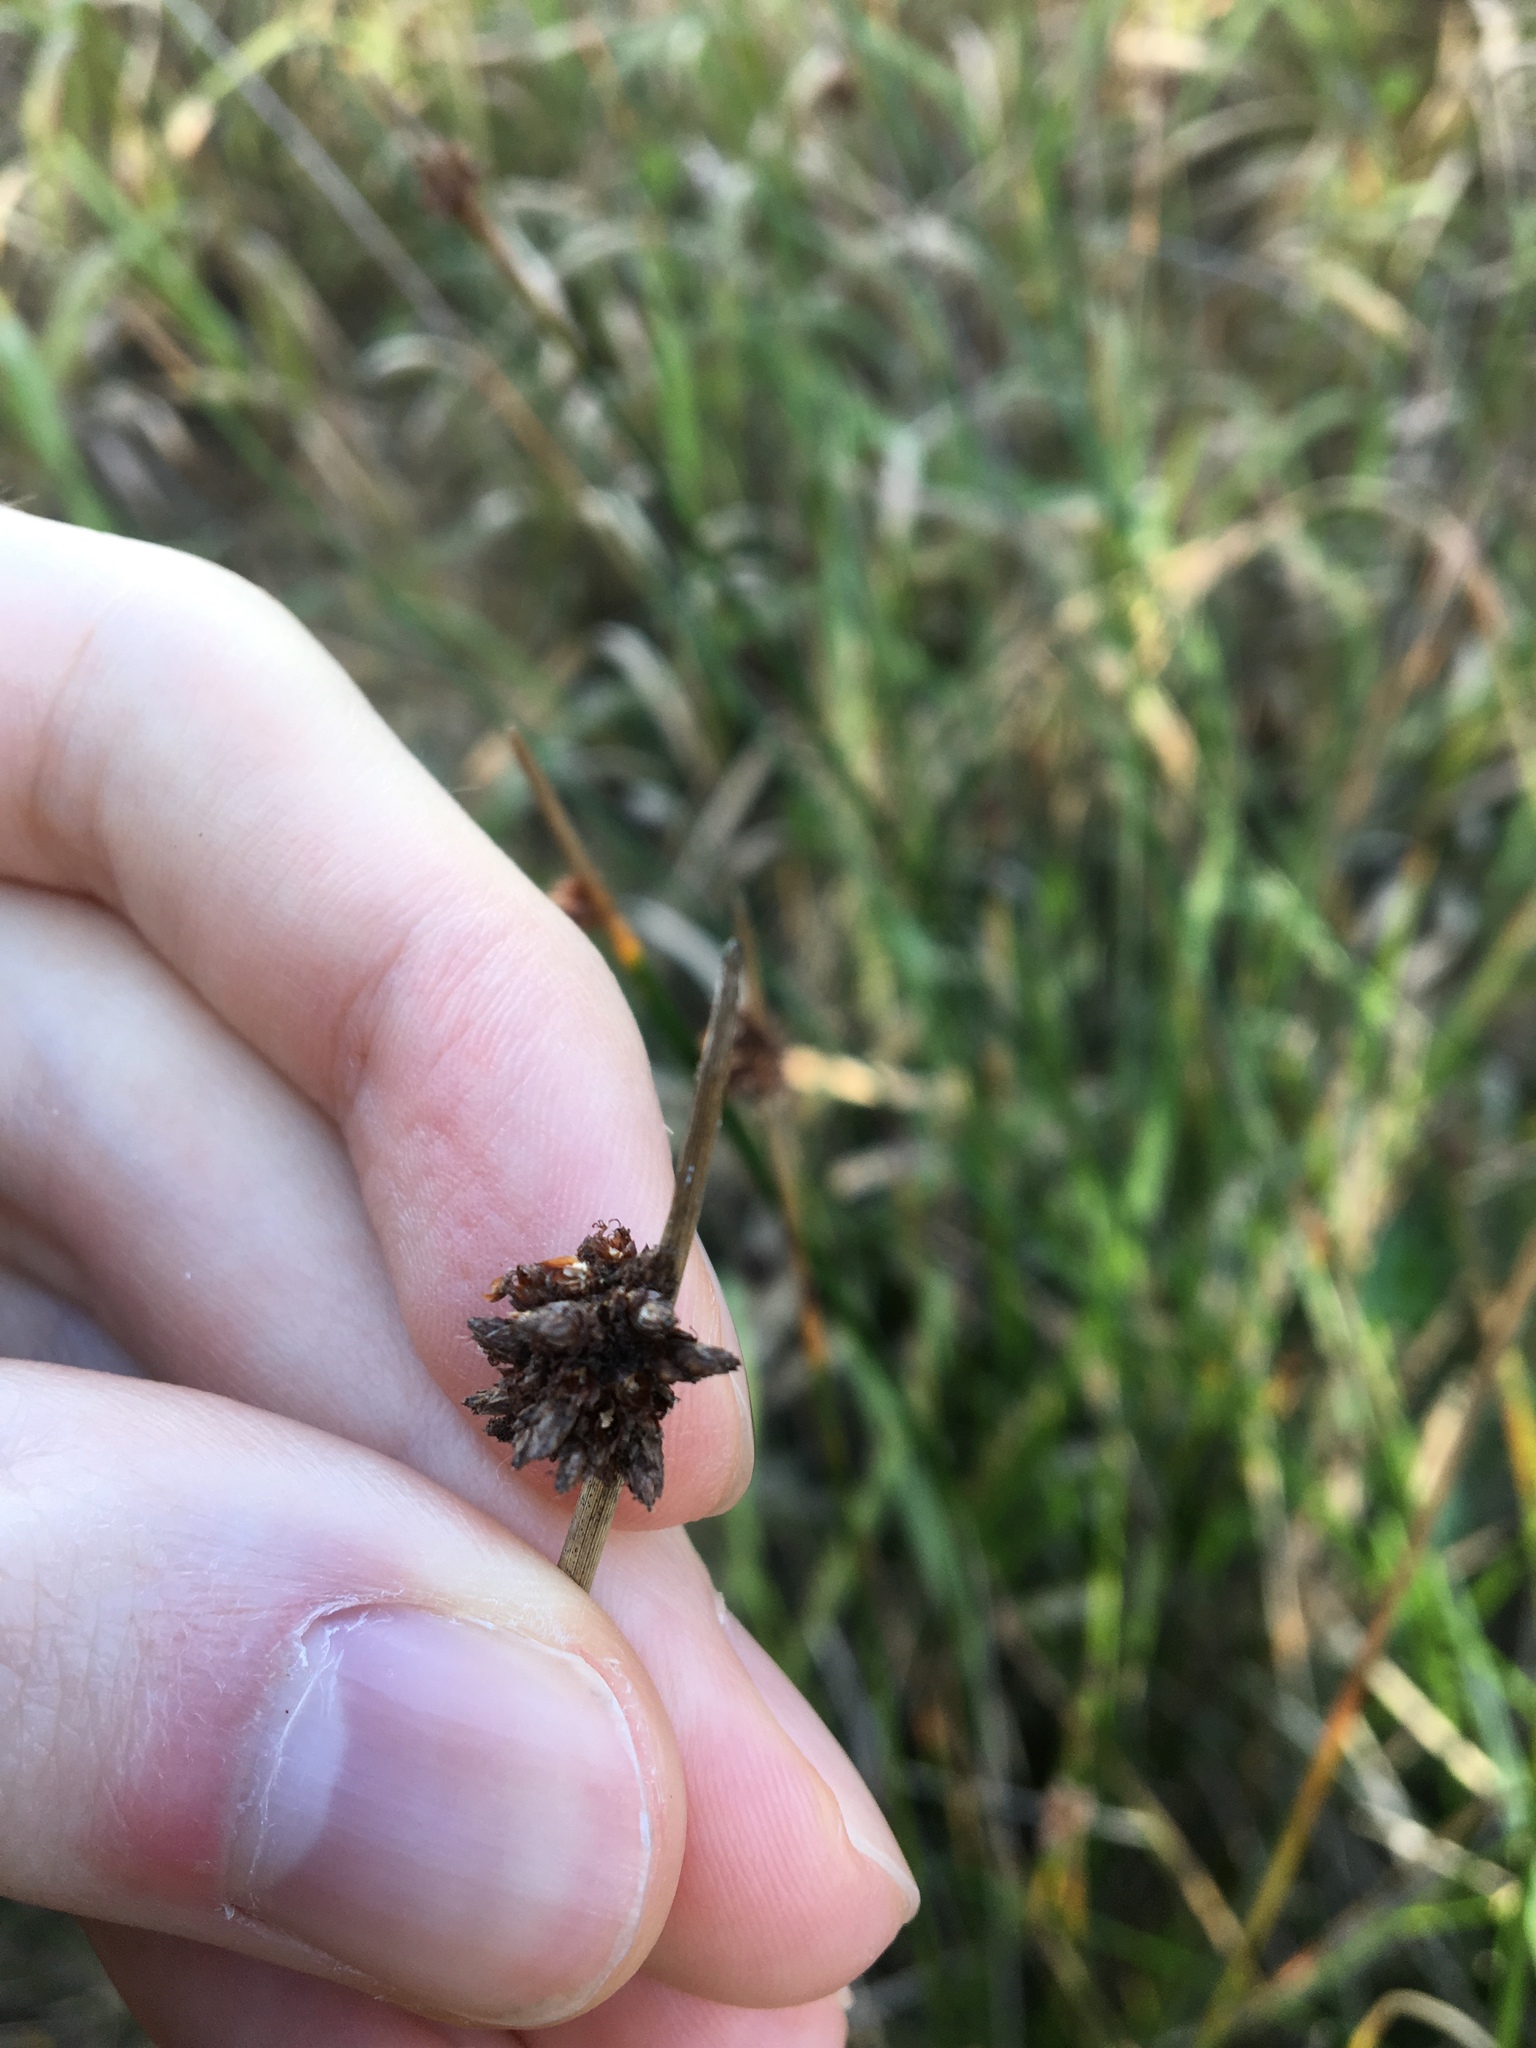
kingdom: Plantae
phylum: Tracheophyta
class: Liliopsida
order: Poales
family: Cyperaceae
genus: Ficinia
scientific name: Ficinia nodosa
